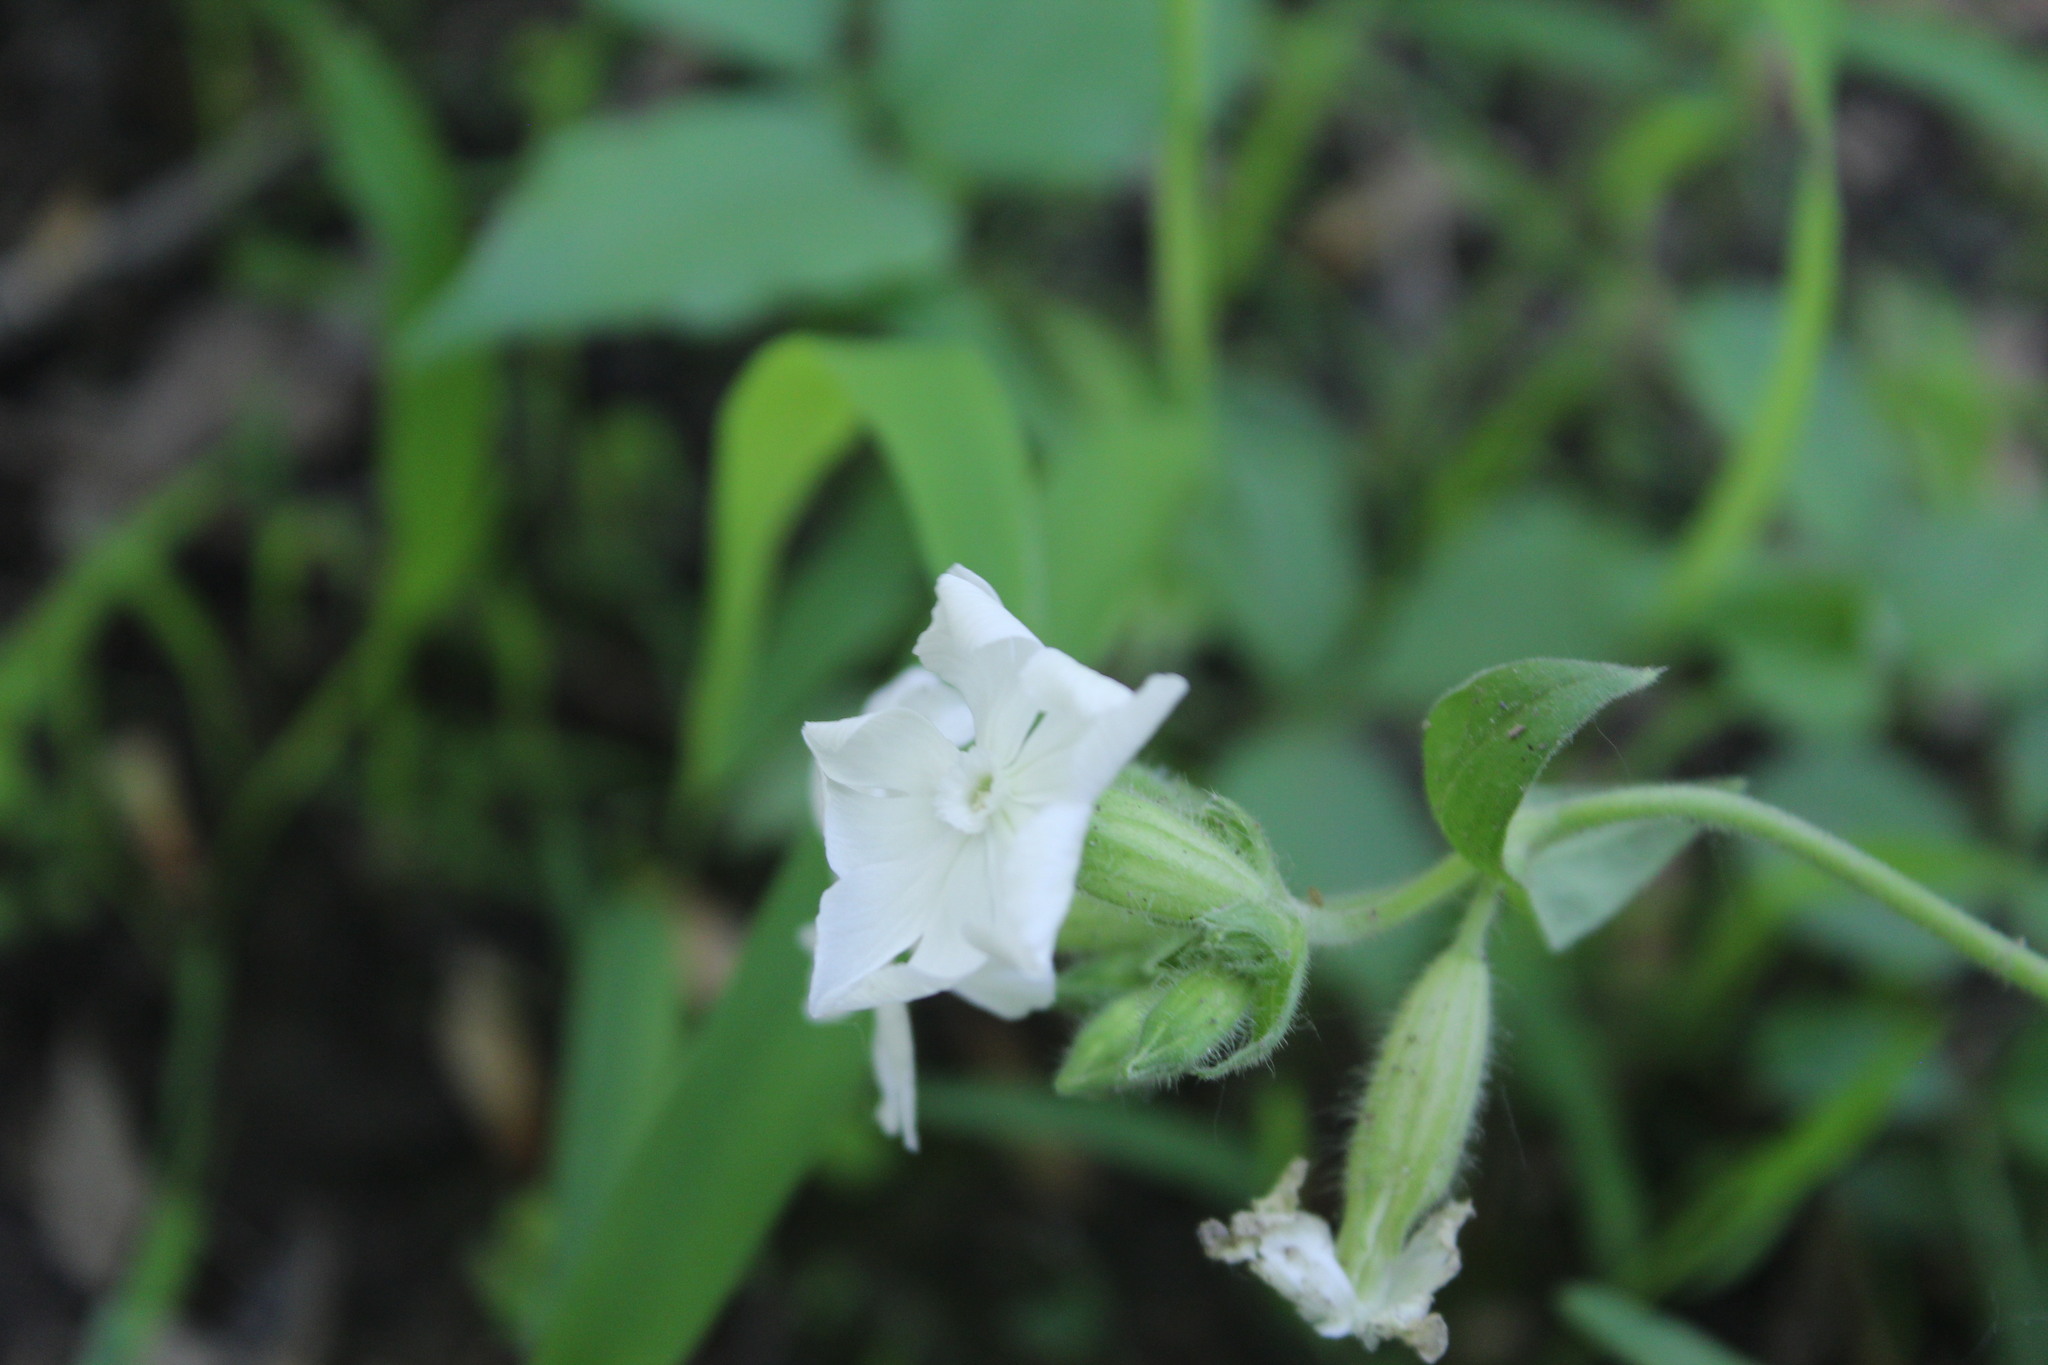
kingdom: Plantae
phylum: Tracheophyta
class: Magnoliopsida
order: Caryophyllales
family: Caryophyllaceae
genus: Silene
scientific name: Silene latifolia
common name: White campion
